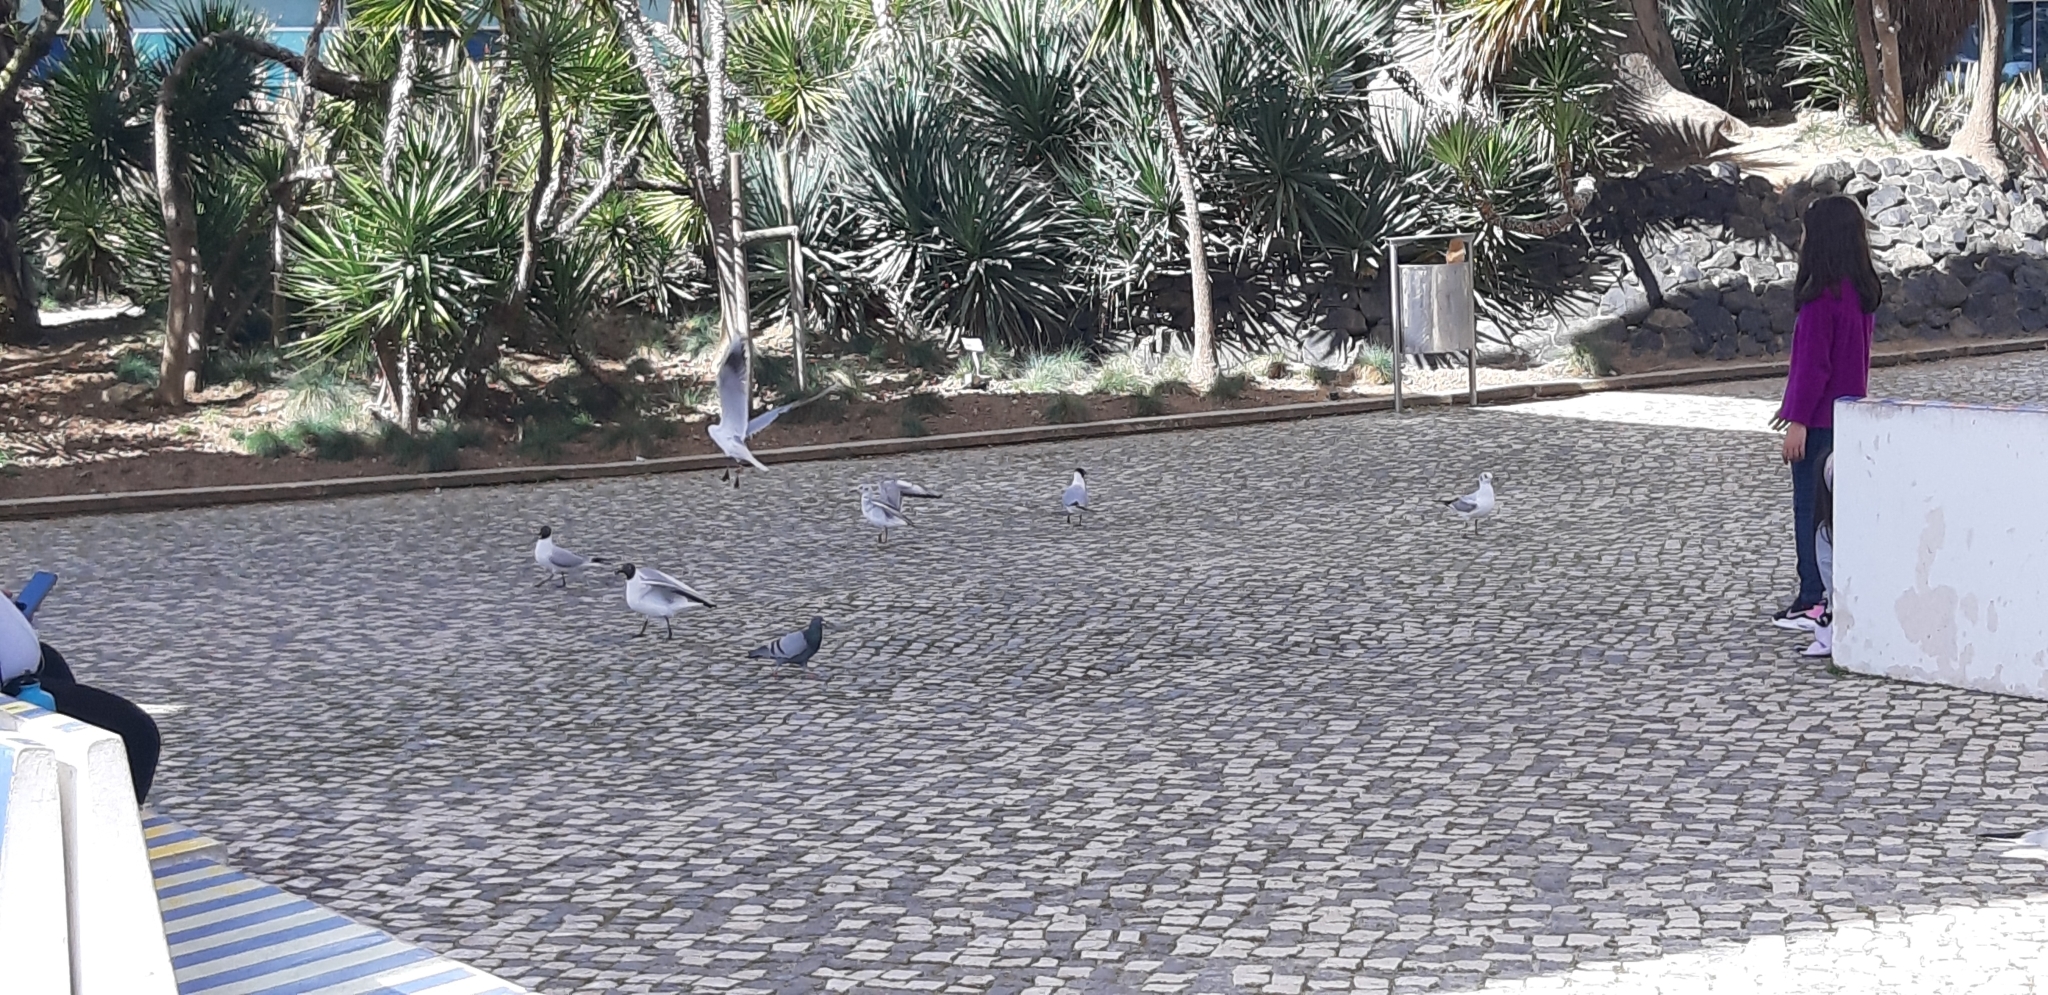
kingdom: Animalia
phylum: Chordata
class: Aves
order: Charadriiformes
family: Laridae
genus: Chroicocephalus
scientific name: Chroicocephalus ridibundus
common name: Black-headed gull
